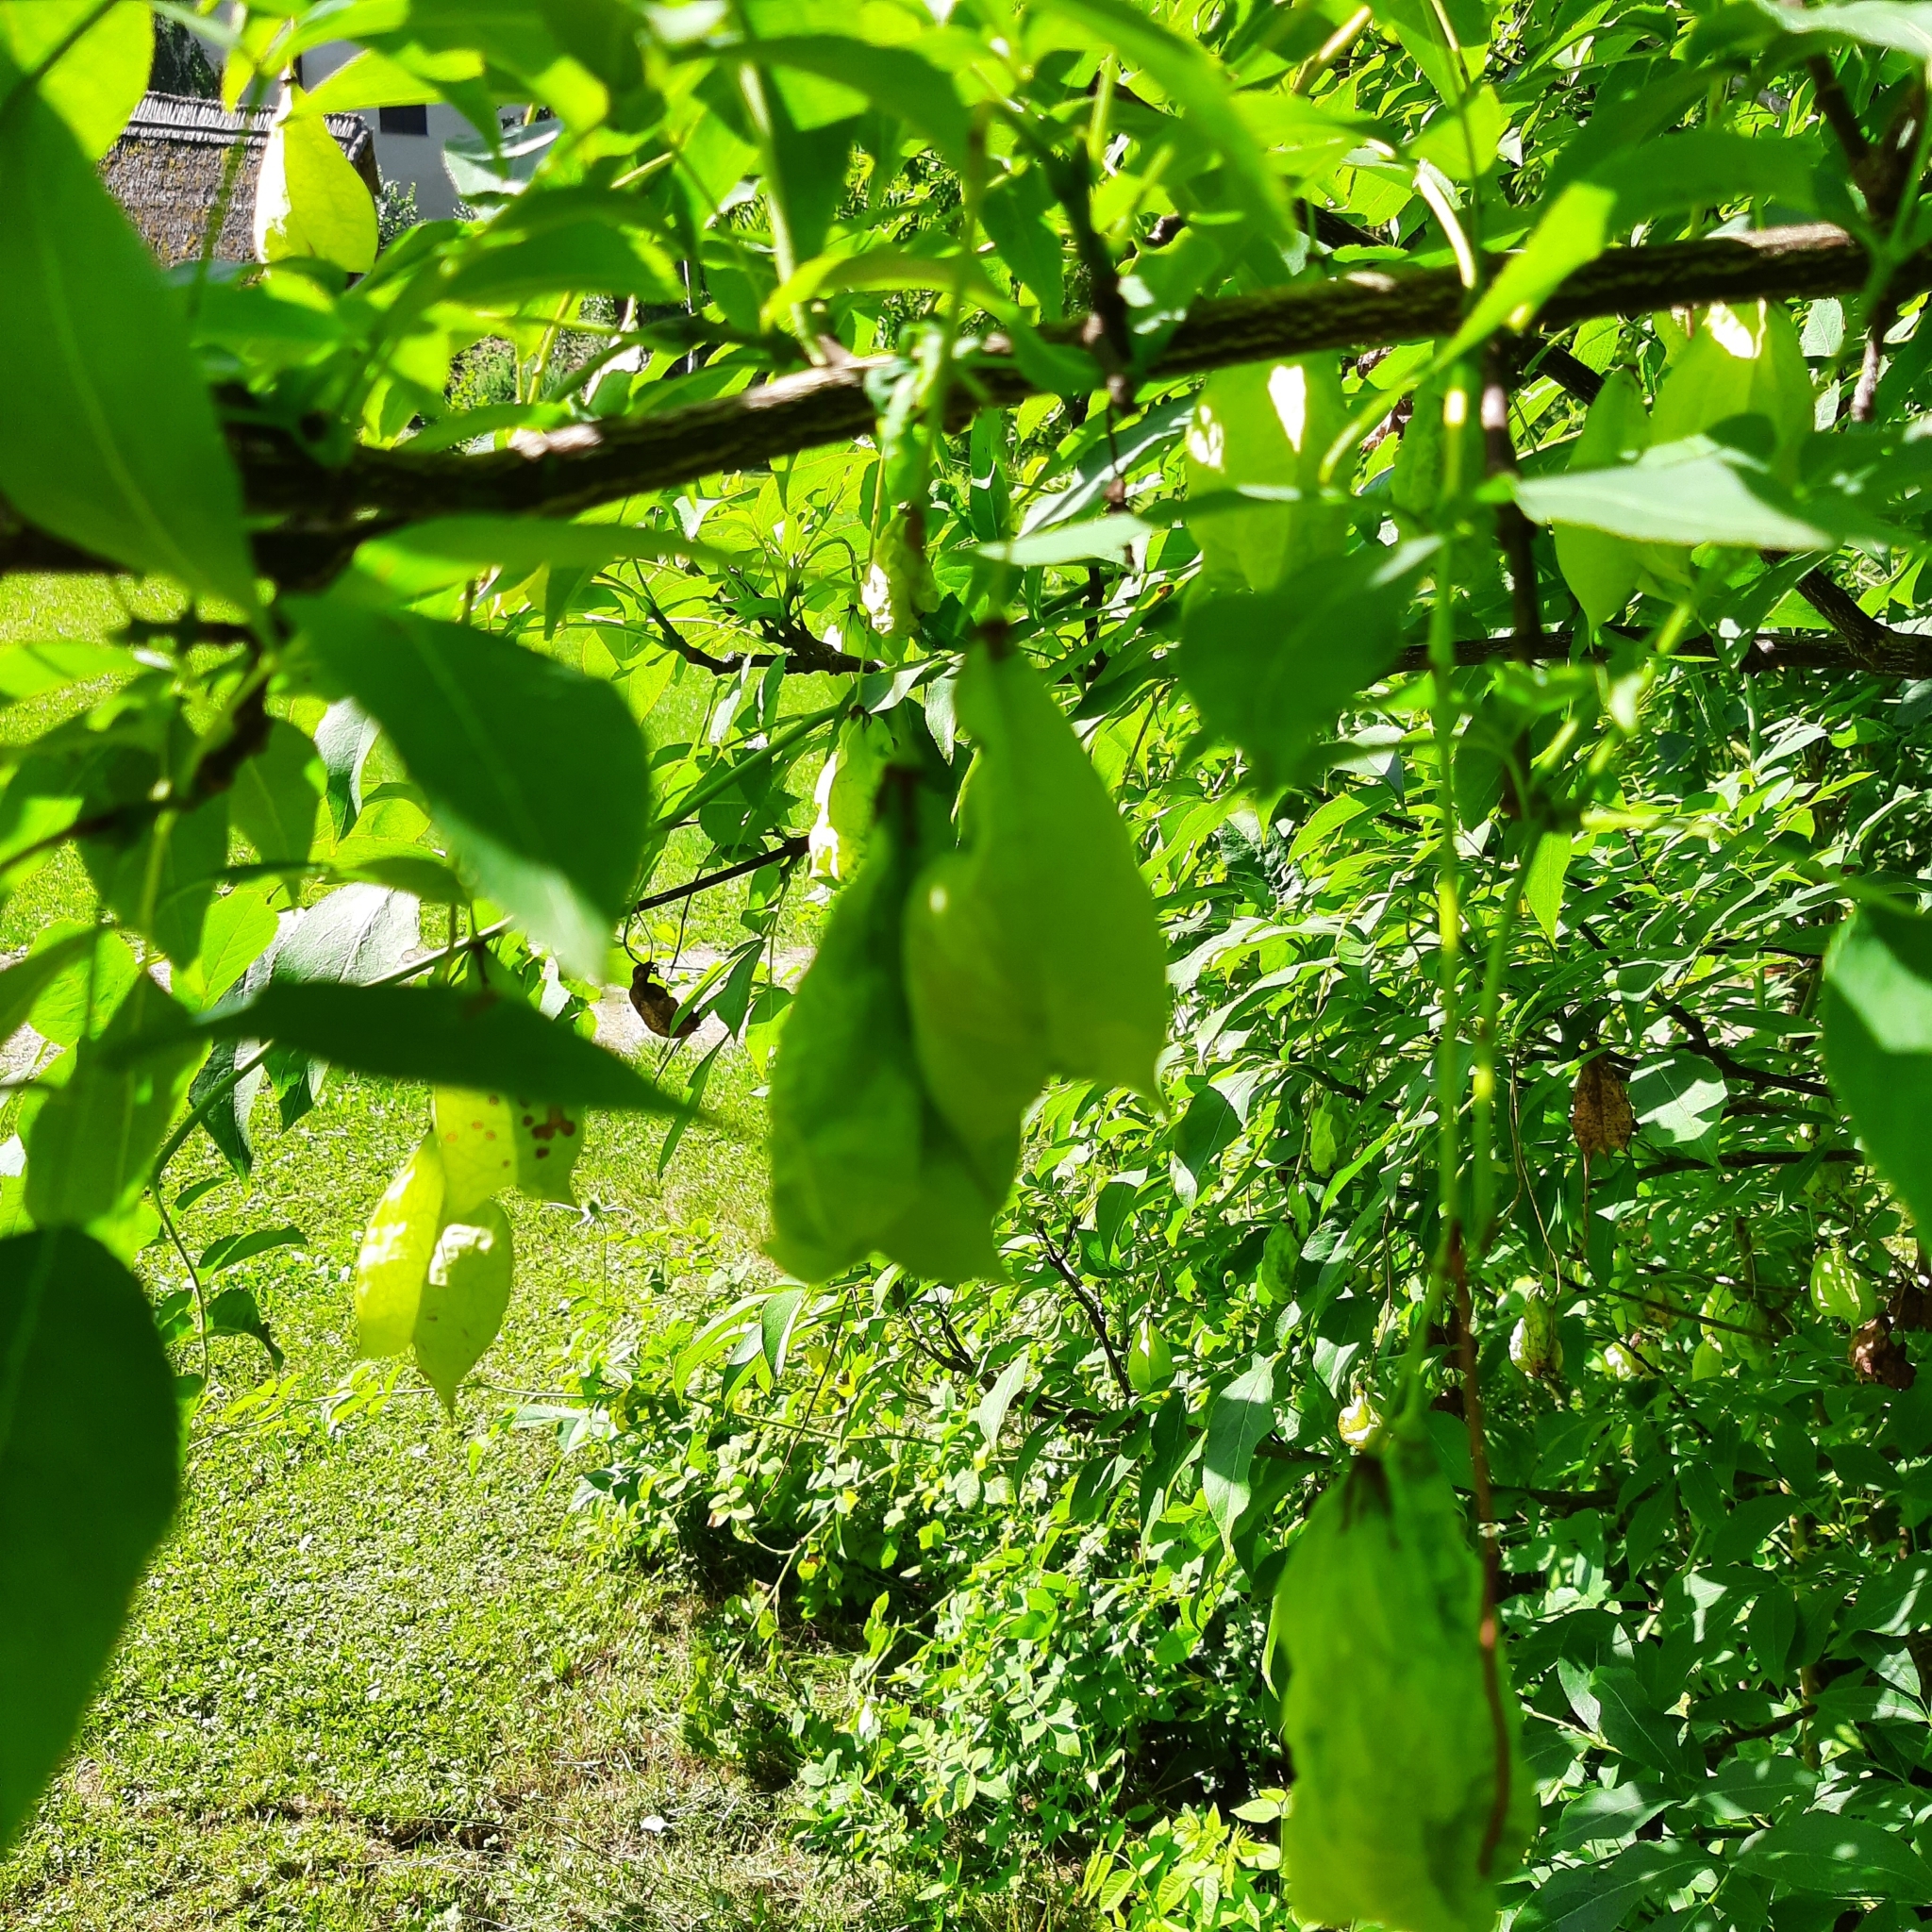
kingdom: Plantae
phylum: Tracheophyta
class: Magnoliopsida
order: Crossosomatales
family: Staphyleaceae
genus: Staphylea
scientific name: Staphylea
